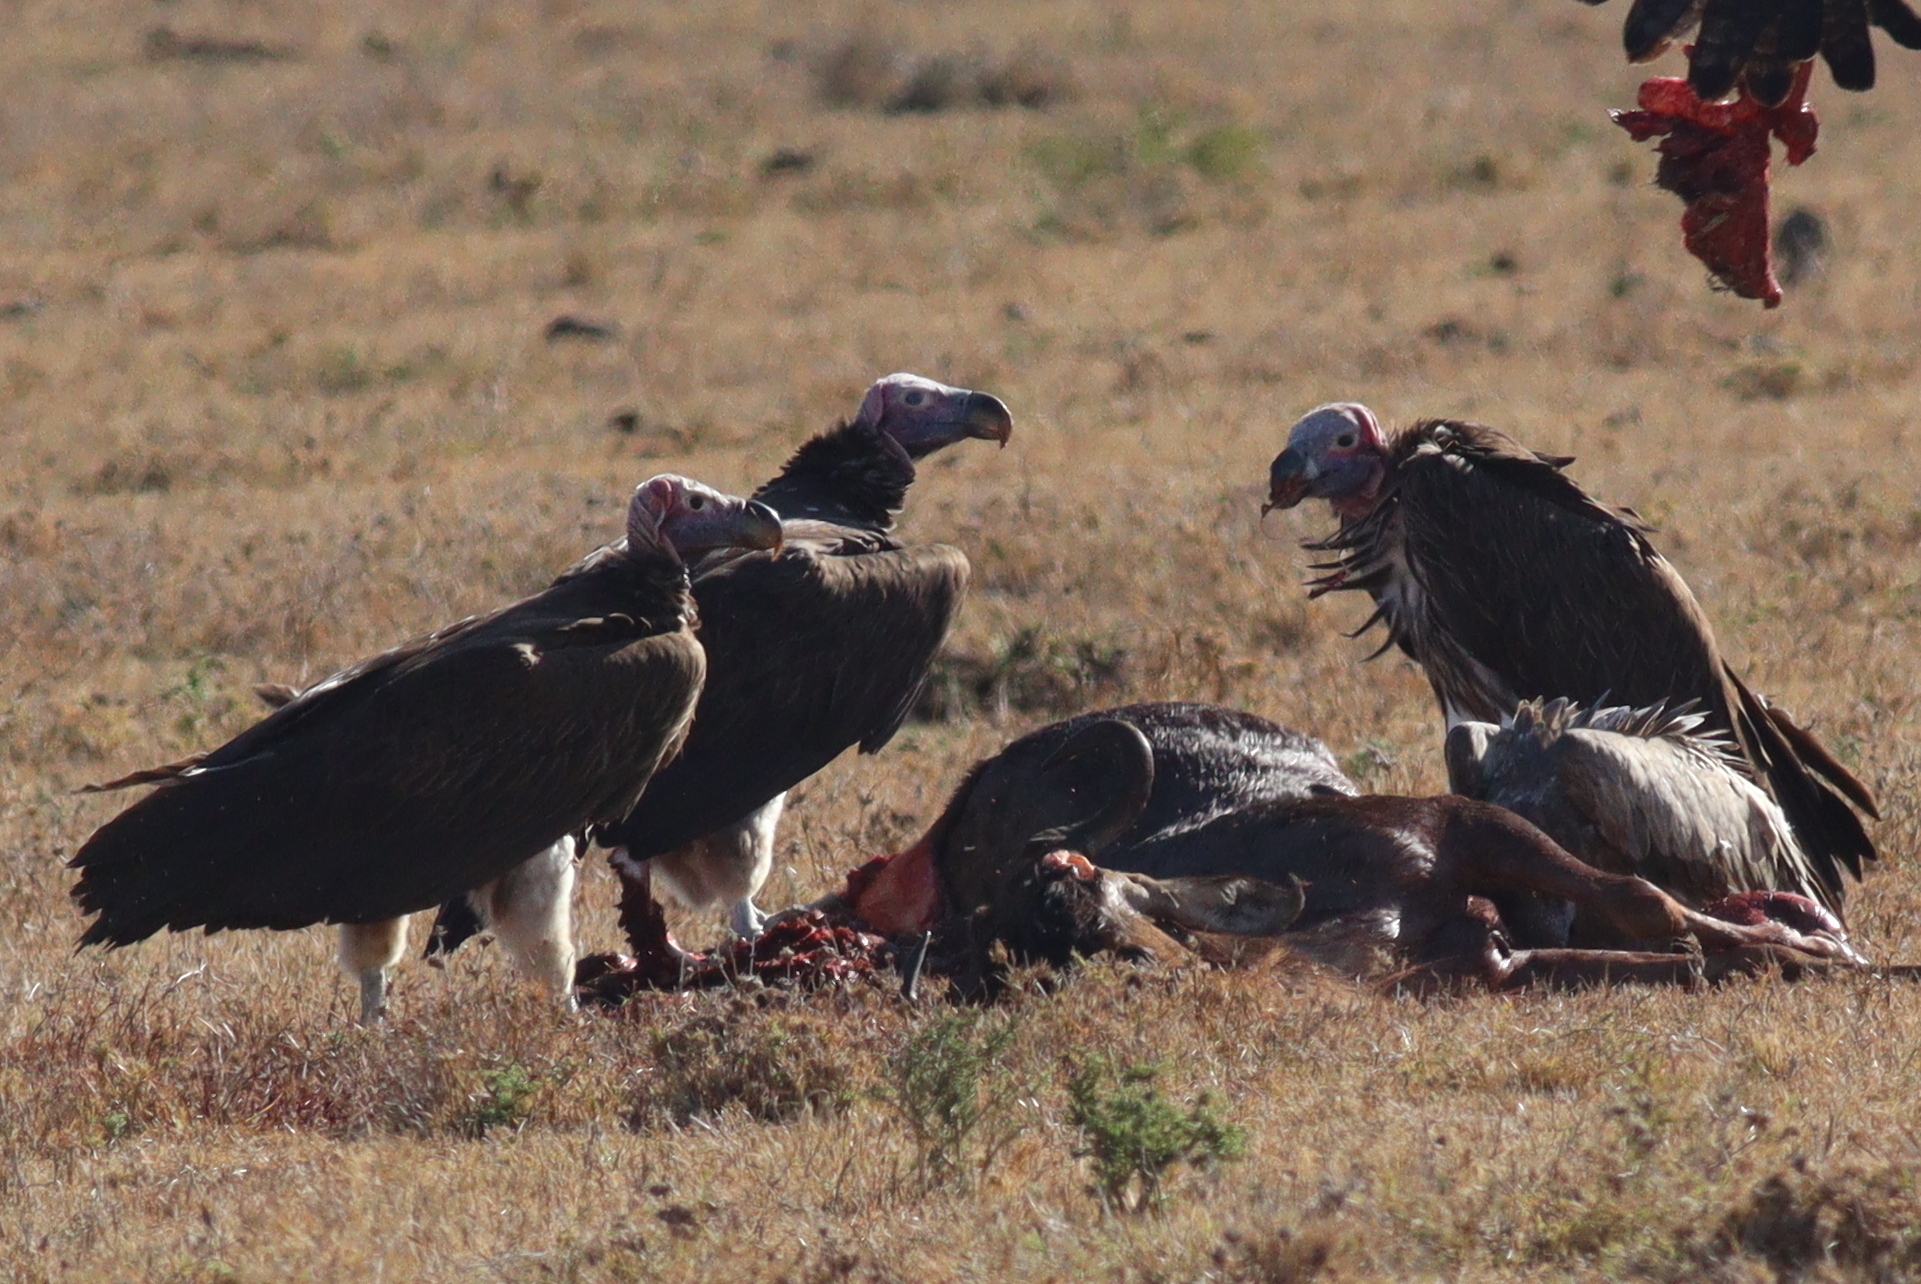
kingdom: Animalia
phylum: Chordata
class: Aves
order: Accipitriformes
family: Accipitridae
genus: Torgos
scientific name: Torgos tracheliotos
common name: Lappet-faced vulture
